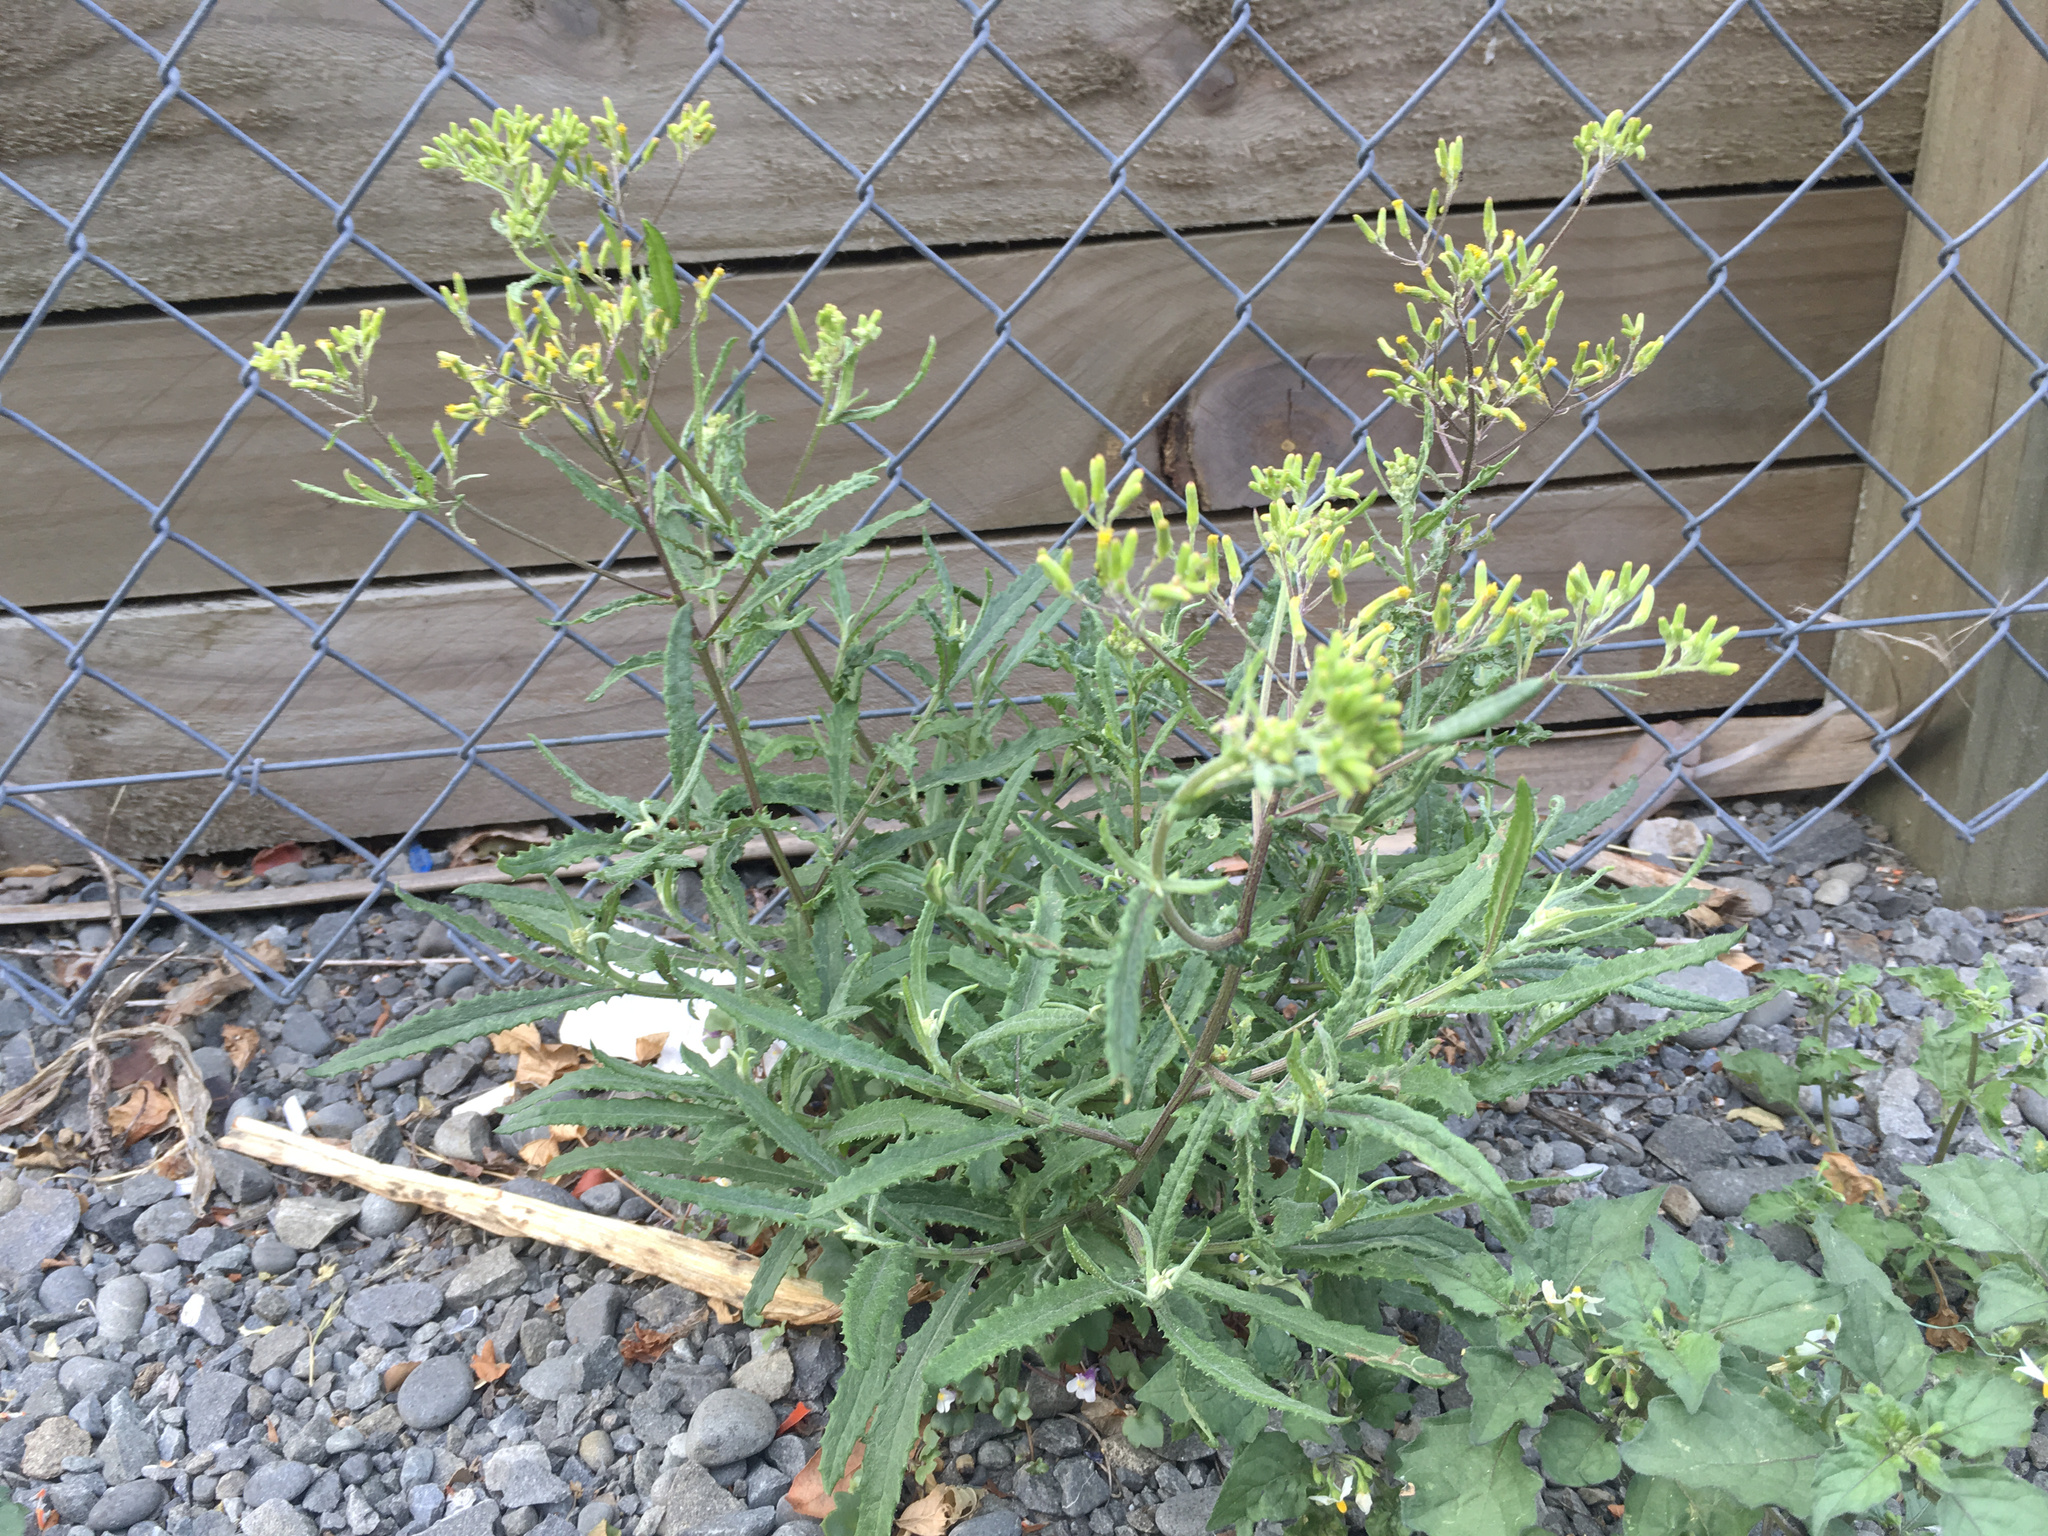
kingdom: Plantae
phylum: Tracheophyta
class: Magnoliopsida
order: Asterales
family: Asteraceae
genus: Senecio
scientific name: Senecio minimus
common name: Toothed fireweed
